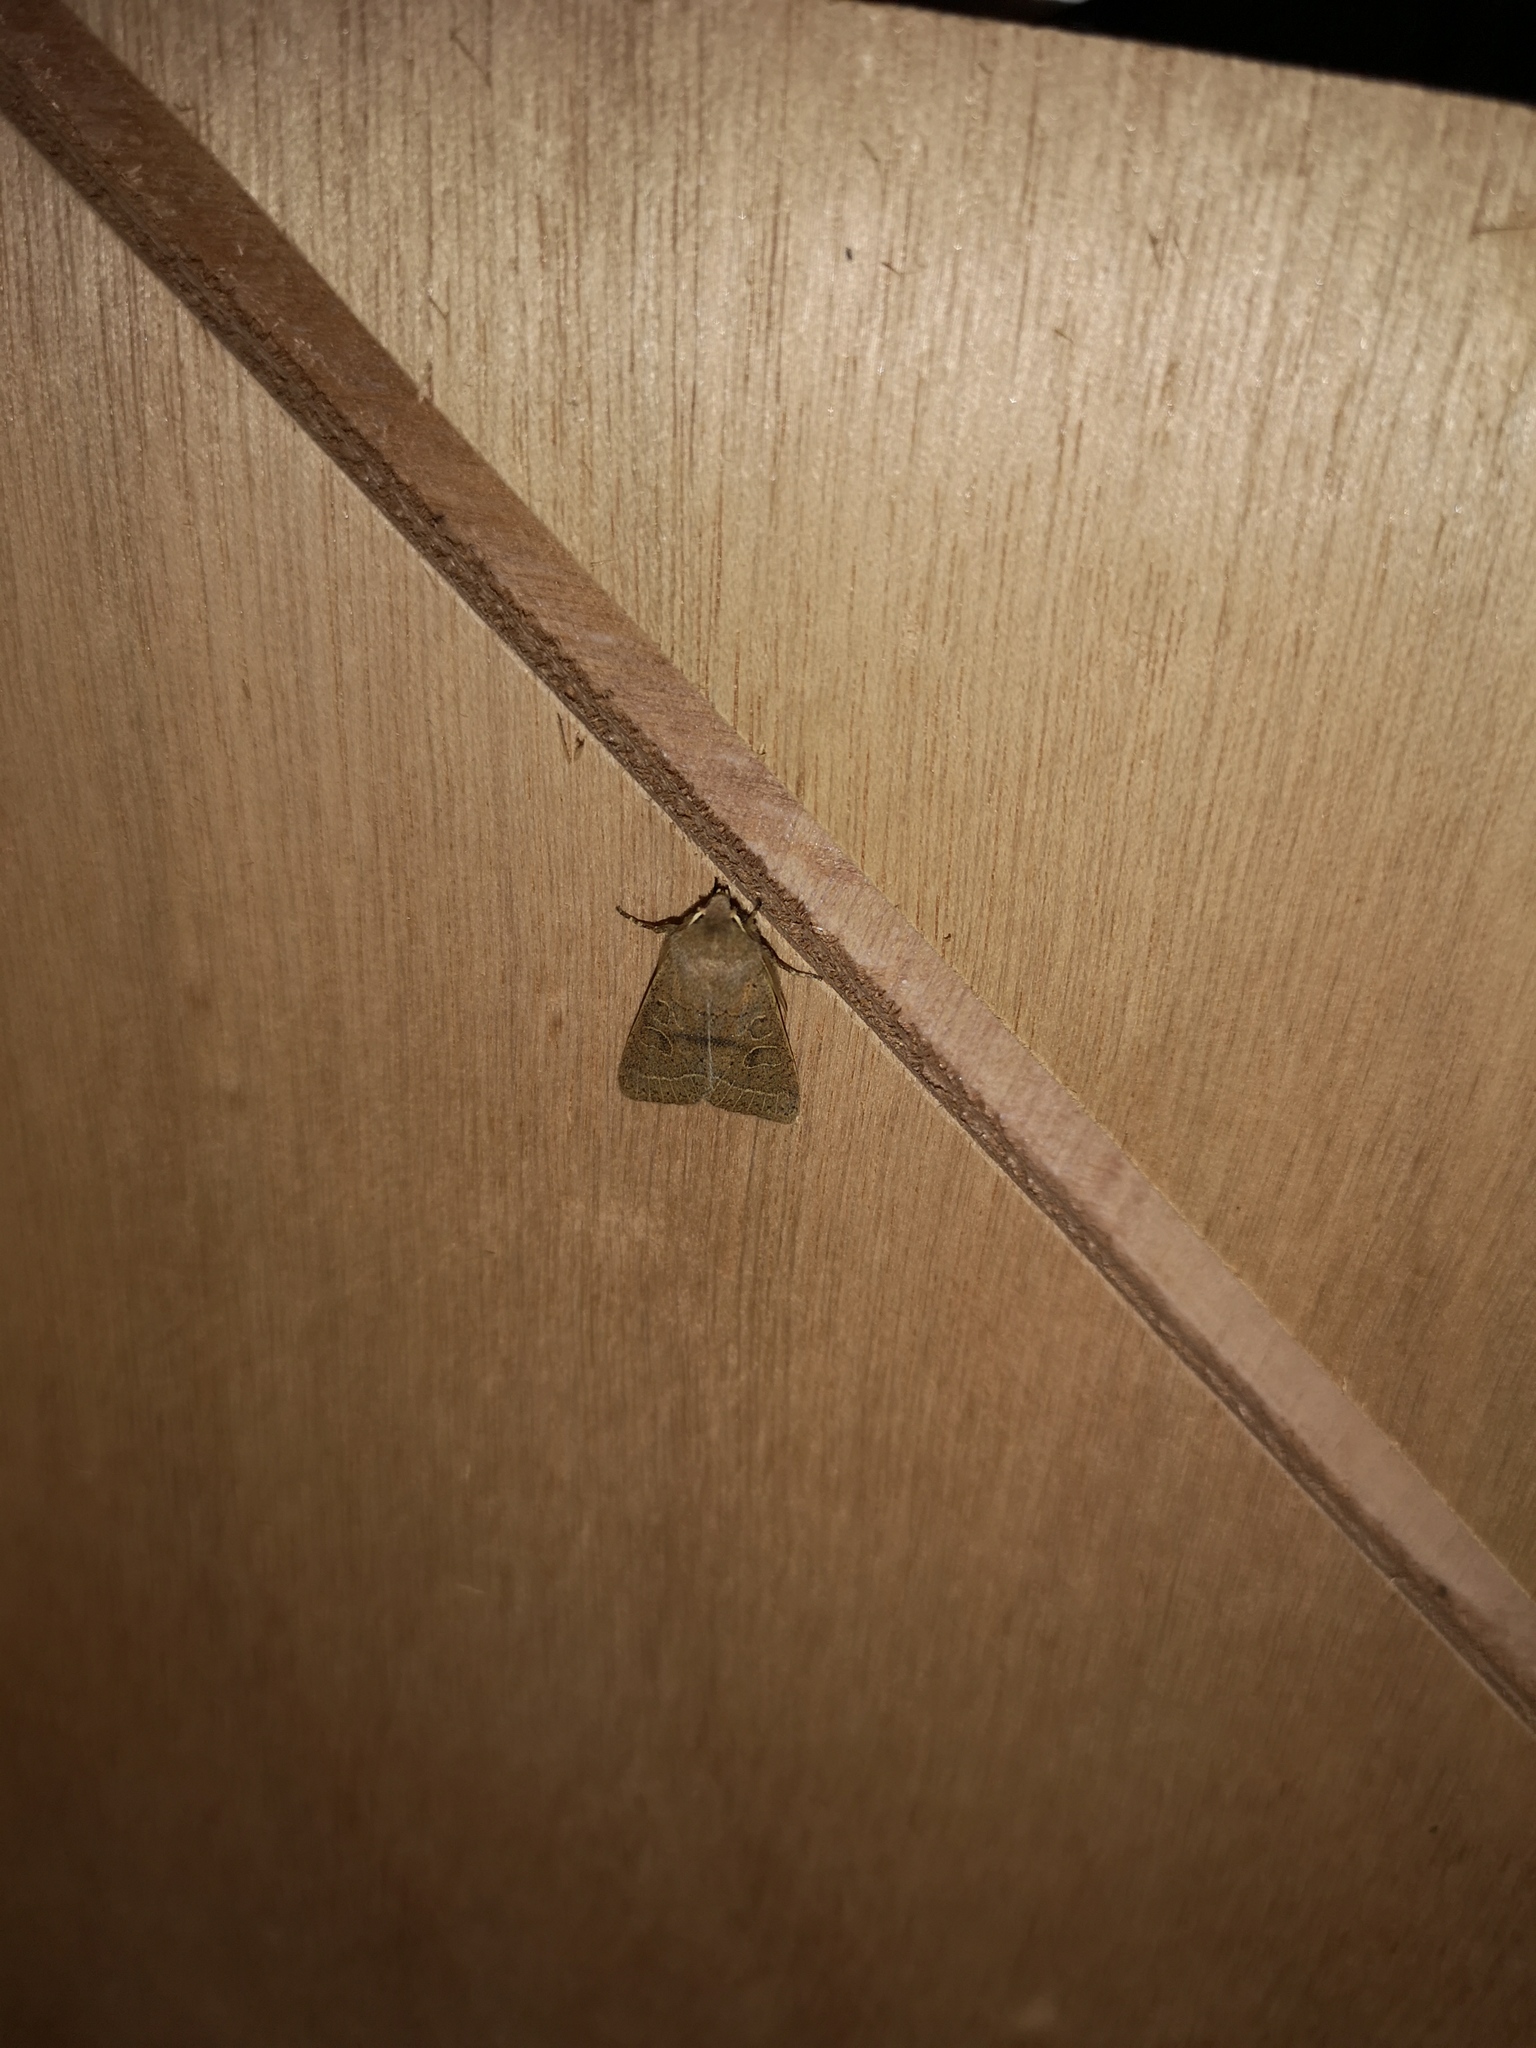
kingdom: Animalia
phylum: Arthropoda
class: Insecta
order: Lepidoptera
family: Noctuidae
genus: Orthosia
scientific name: Orthosia cerasi
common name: Common quaker
